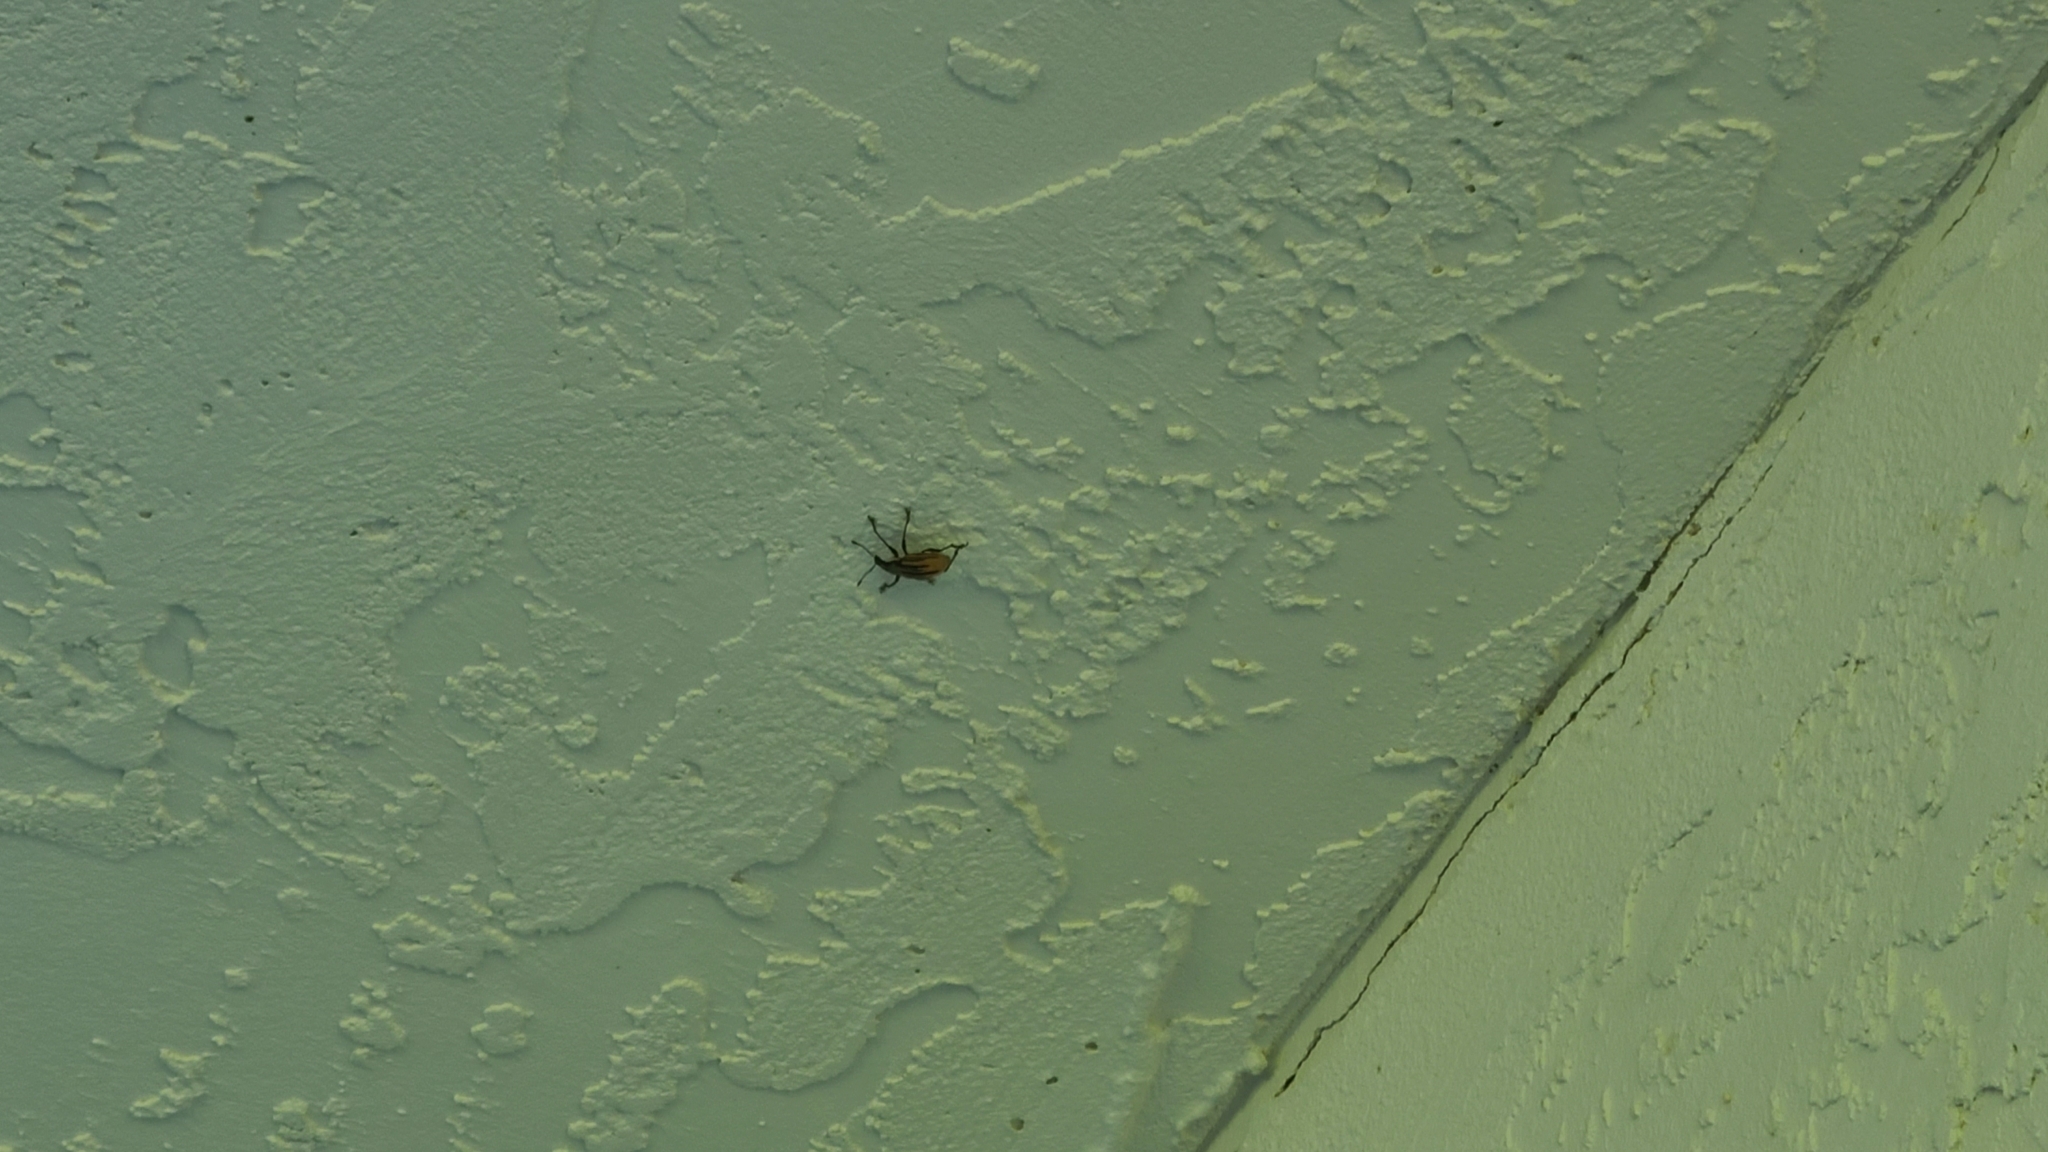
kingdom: Animalia
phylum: Arthropoda
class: Insecta
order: Coleoptera
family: Curculionidae
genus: Diaprepes
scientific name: Diaprepes abbreviatus
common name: Root weevil
